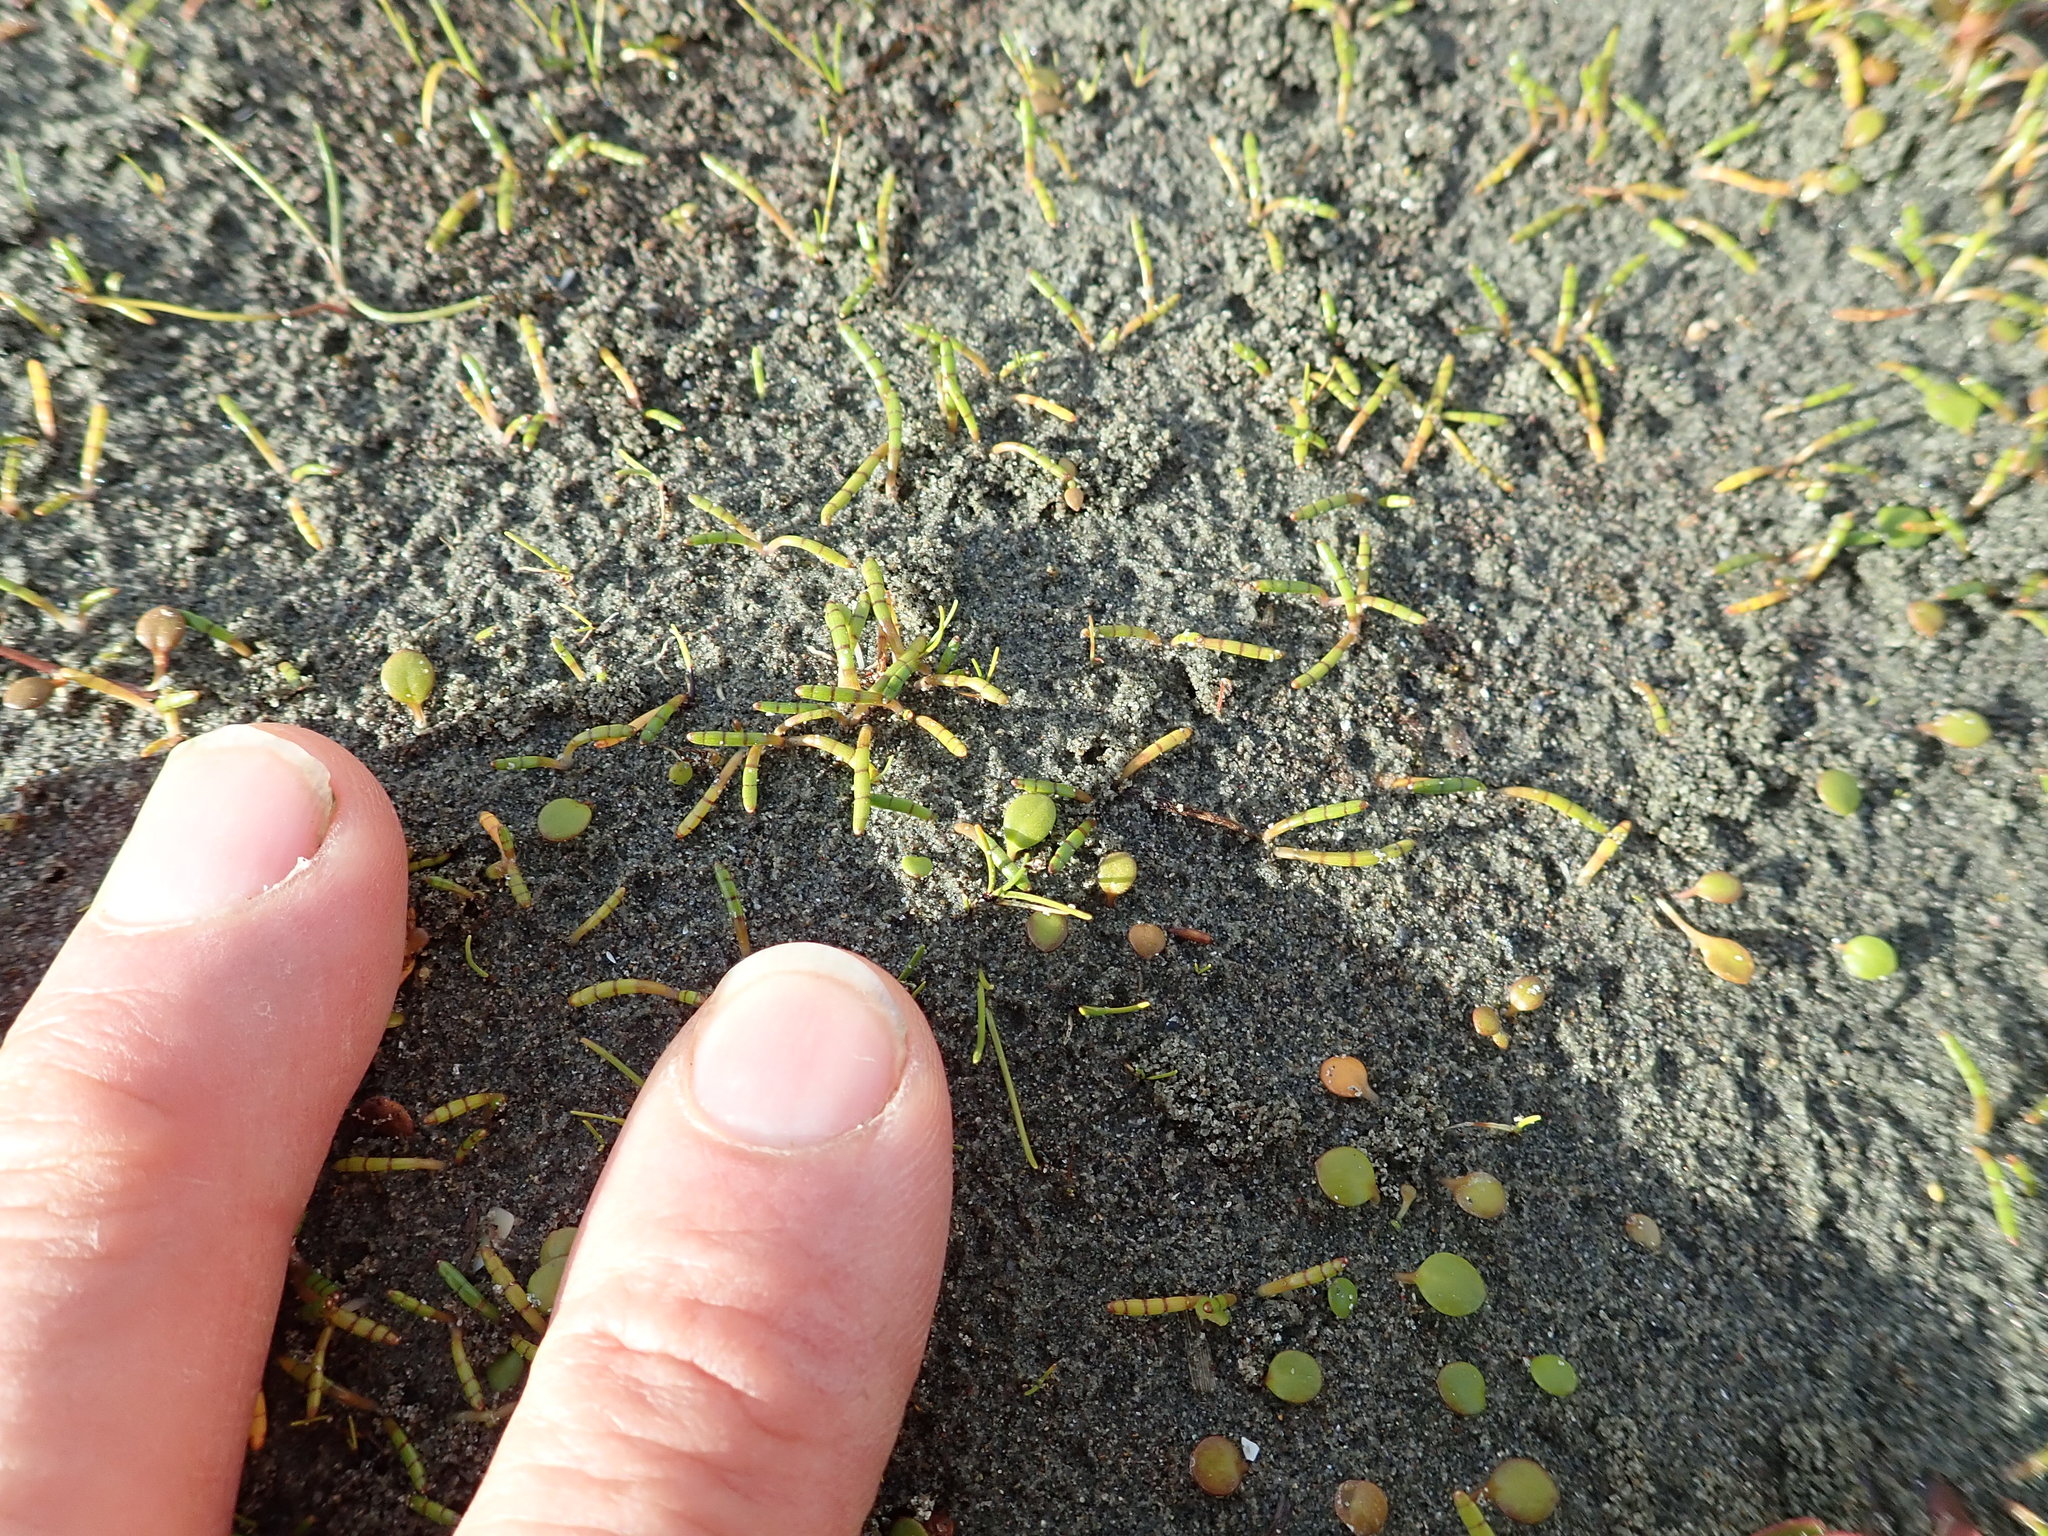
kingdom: Plantae
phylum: Tracheophyta
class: Magnoliopsida
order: Apiales
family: Apiaceae
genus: Lilaeopsis
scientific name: Lilaeopsis novae-zelandiae
